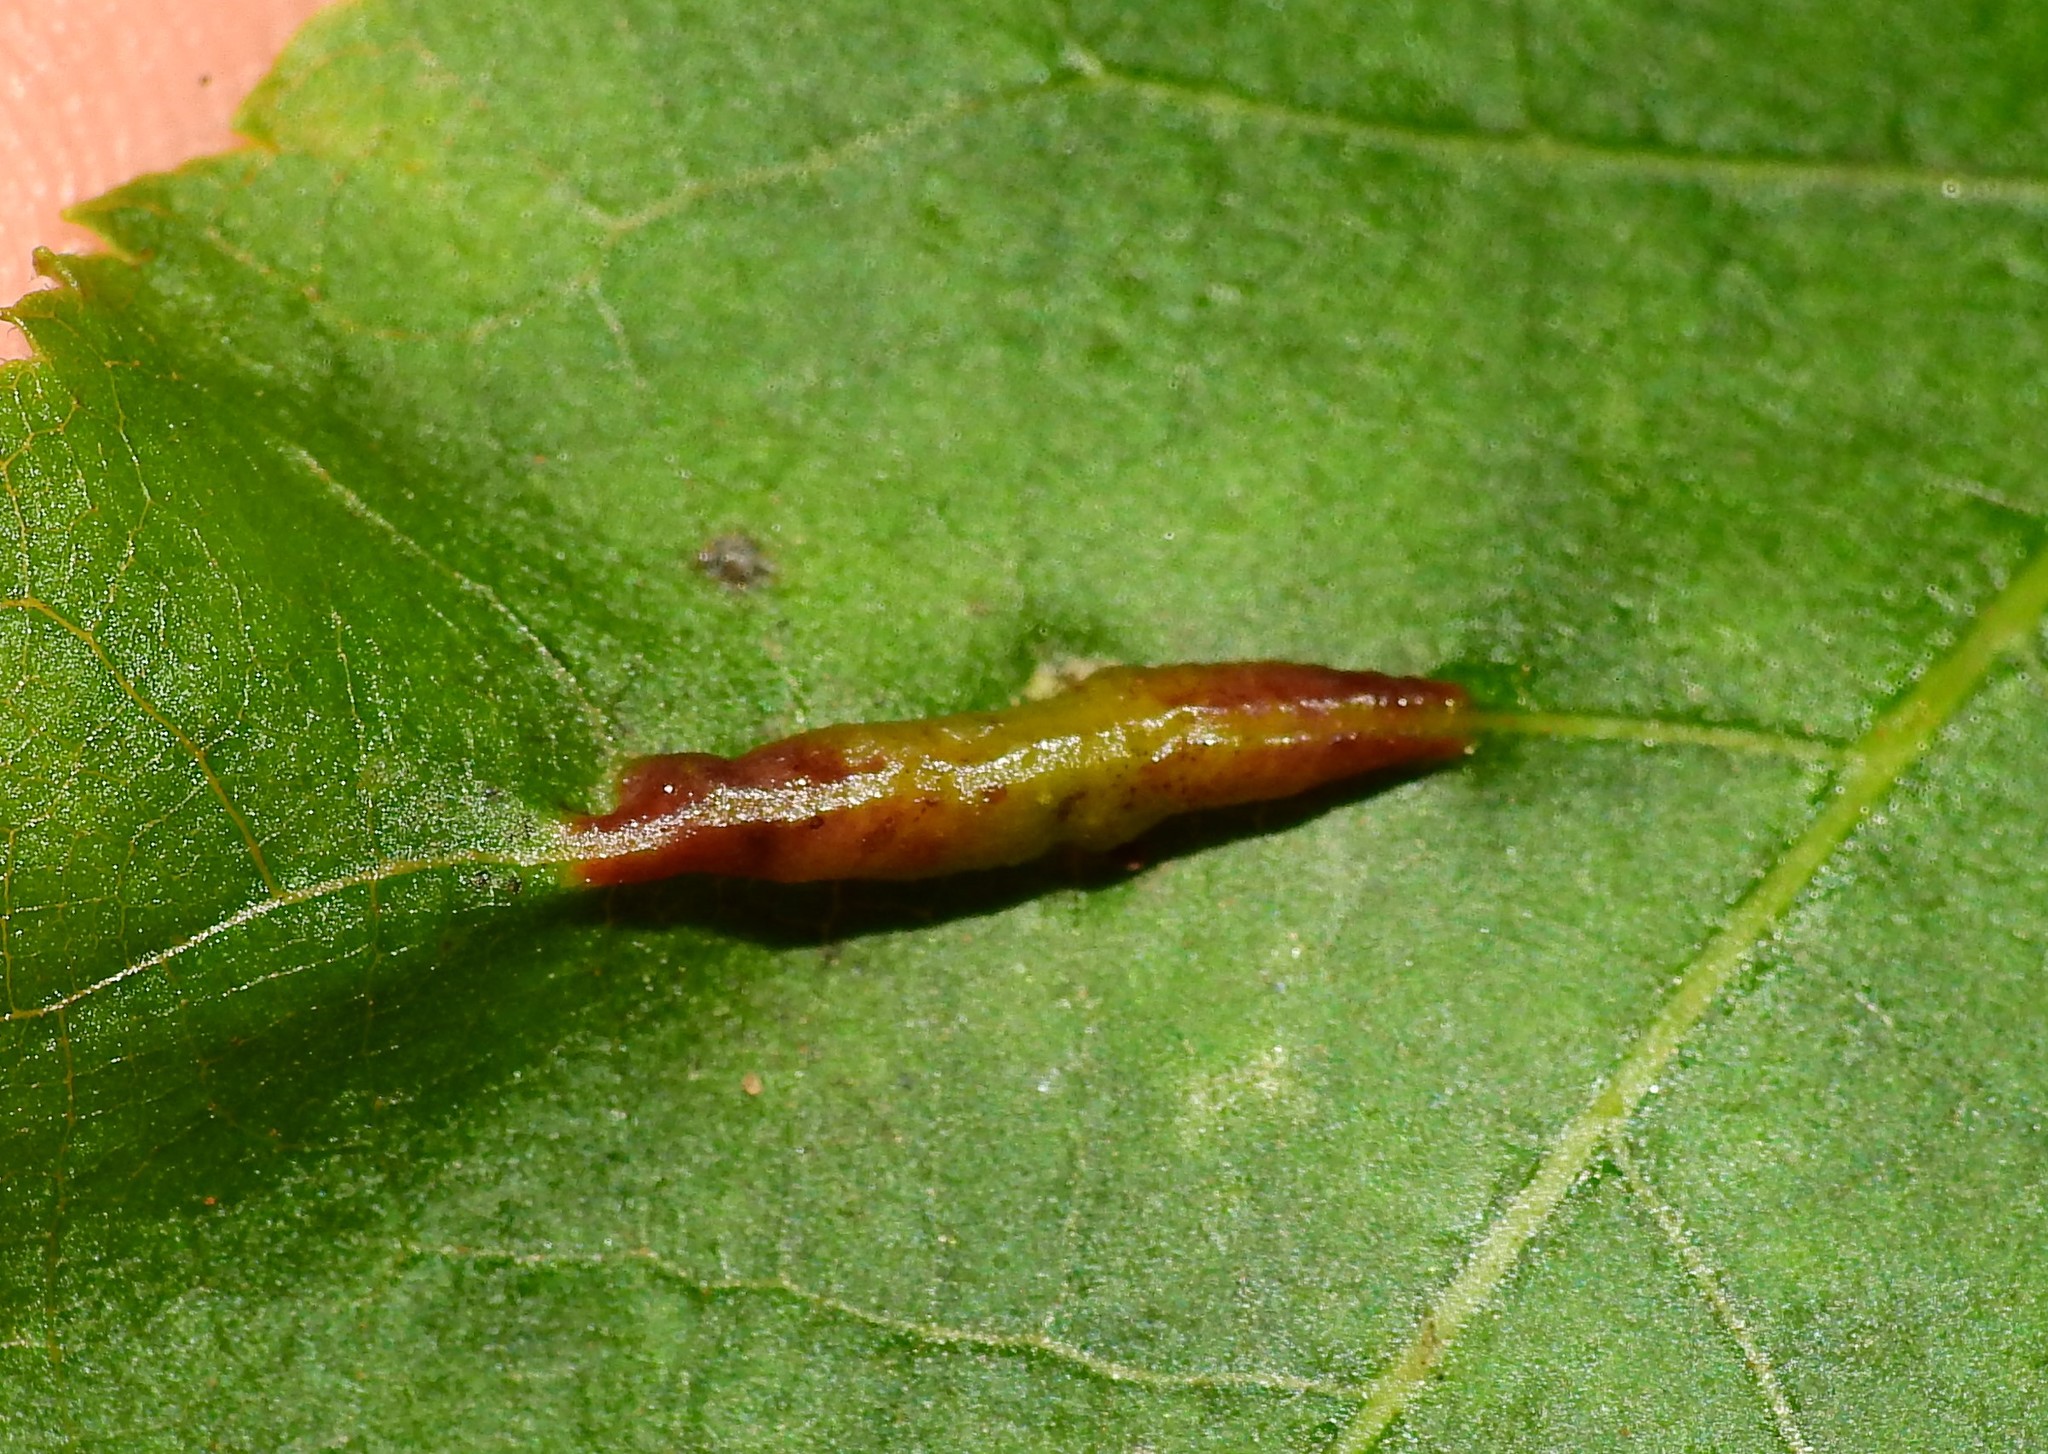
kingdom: Animalia
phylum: Arthropoda
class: Insecta
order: Hemiptera
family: Phylloxeridae
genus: Phylloxera
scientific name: Phylloxera caryaevenae
